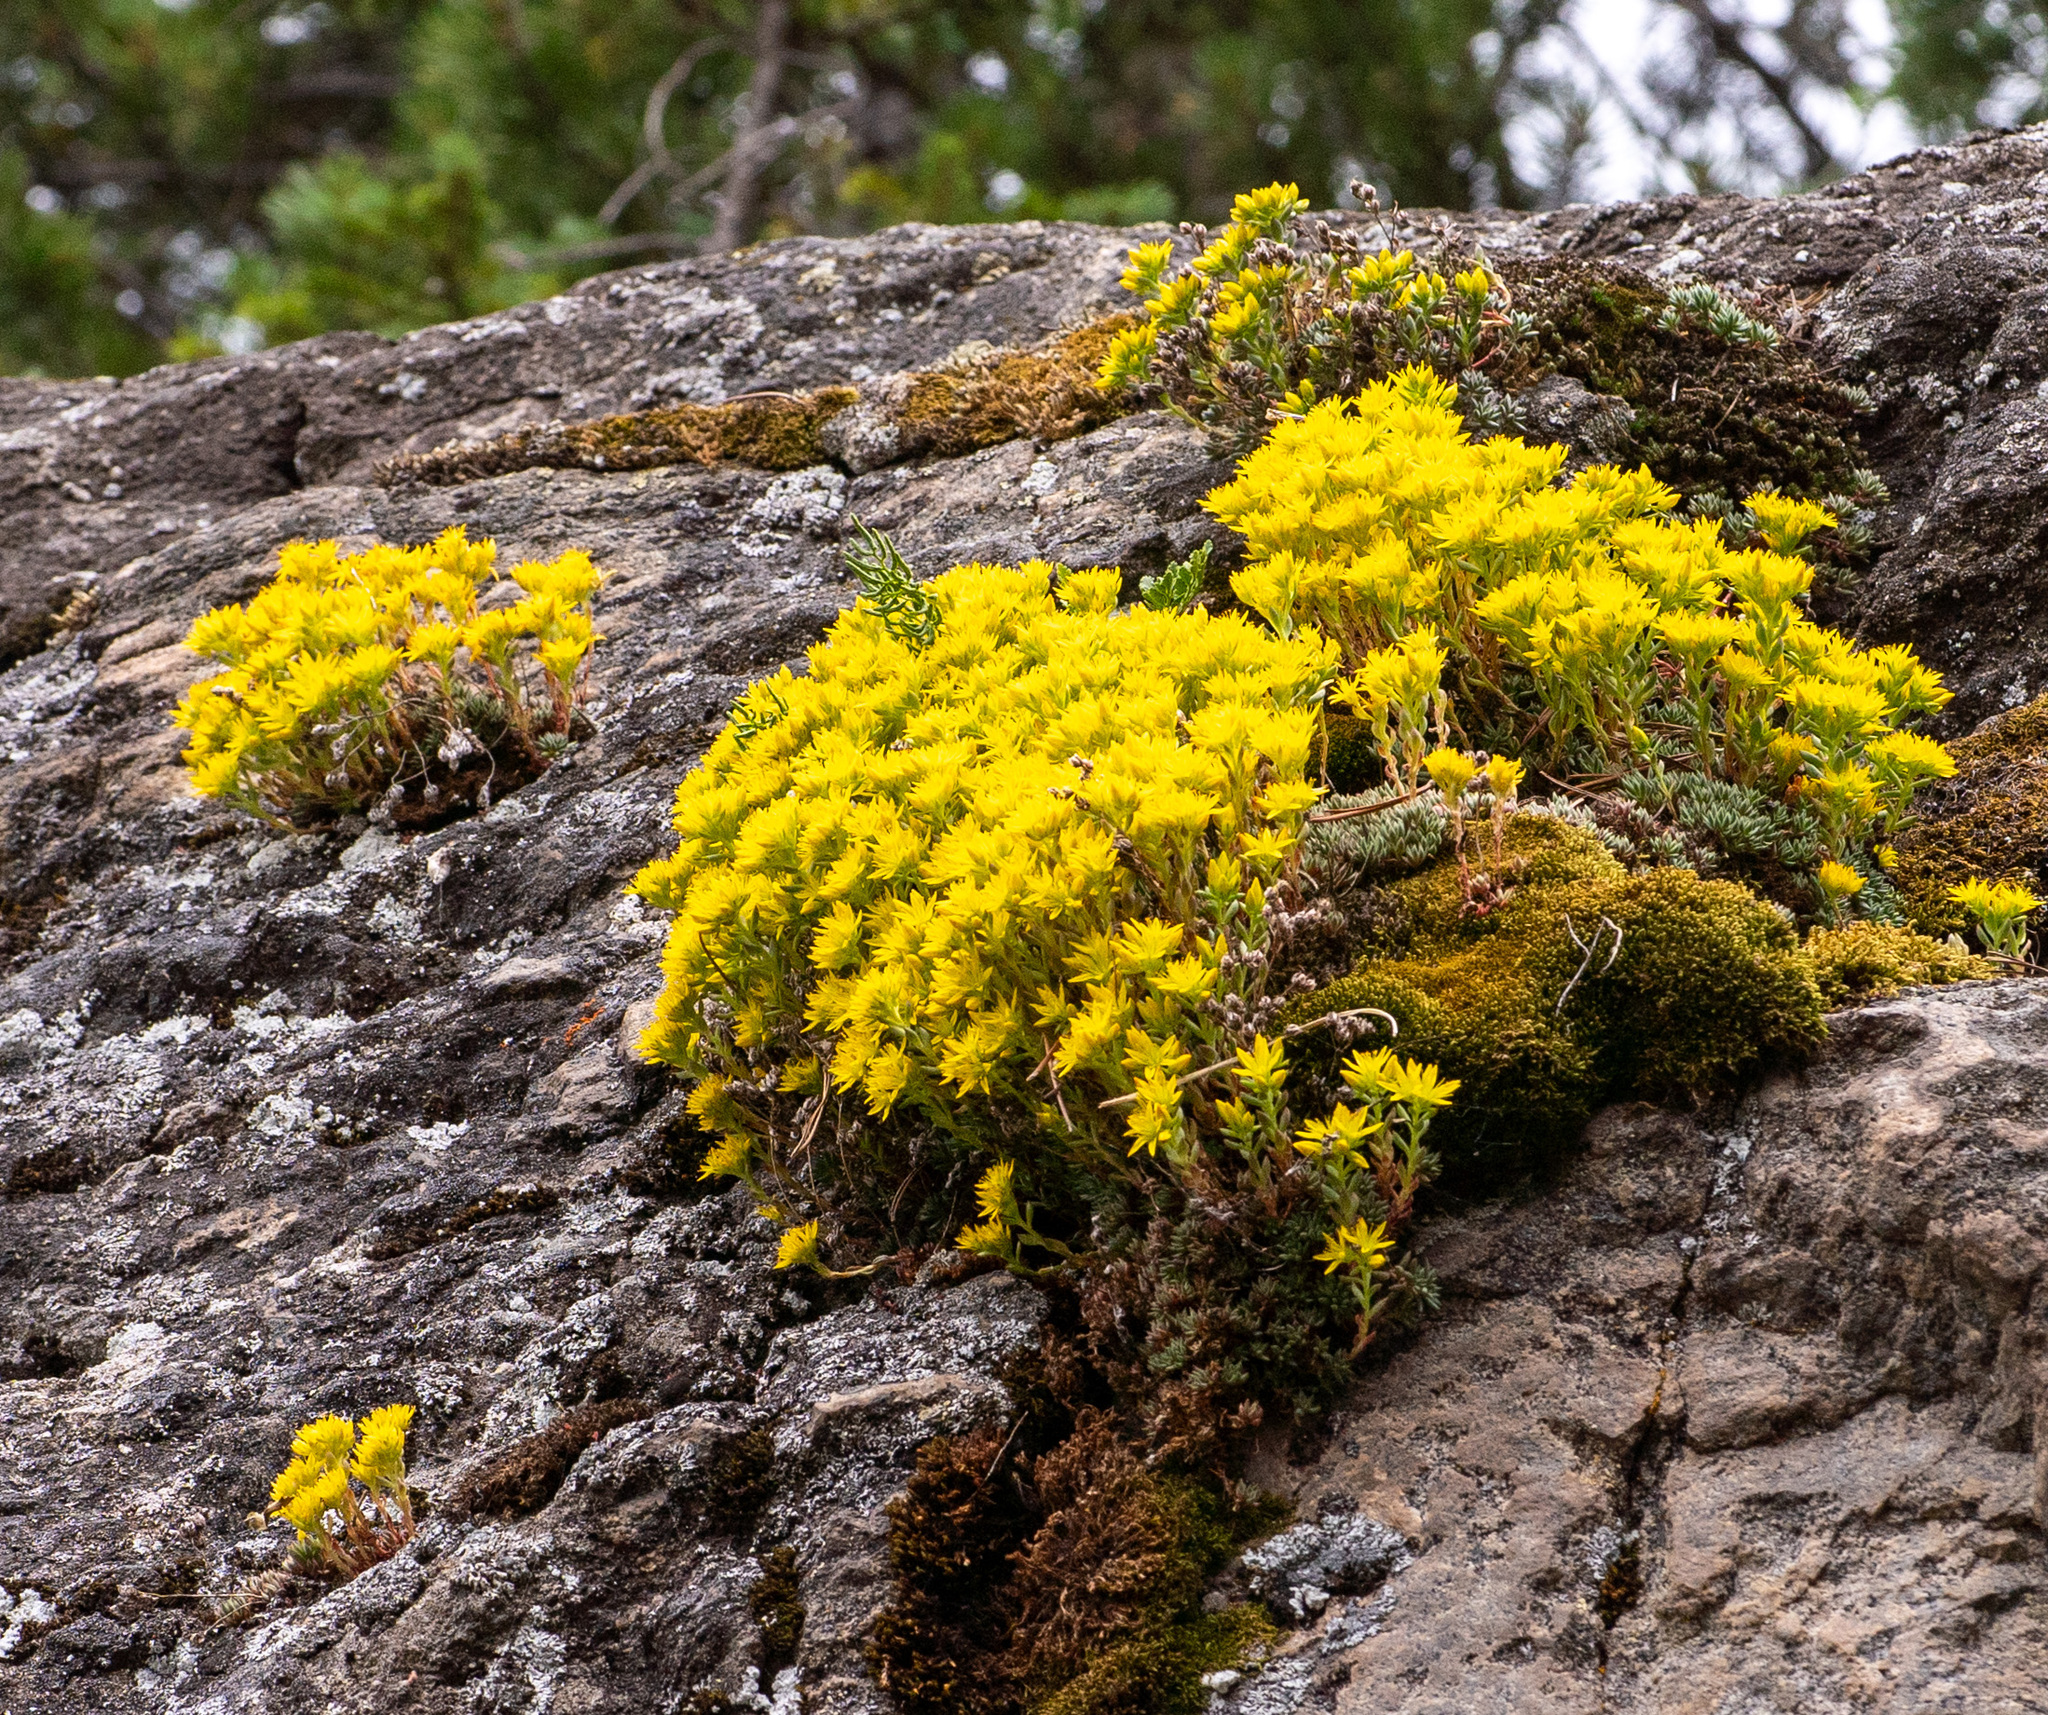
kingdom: Plantae
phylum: Tracheophyta
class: Magnoliopsida
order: Saxifragales
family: Crassulaceae
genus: Sedum
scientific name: Sedum lanceolatum
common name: Common stonecrop
